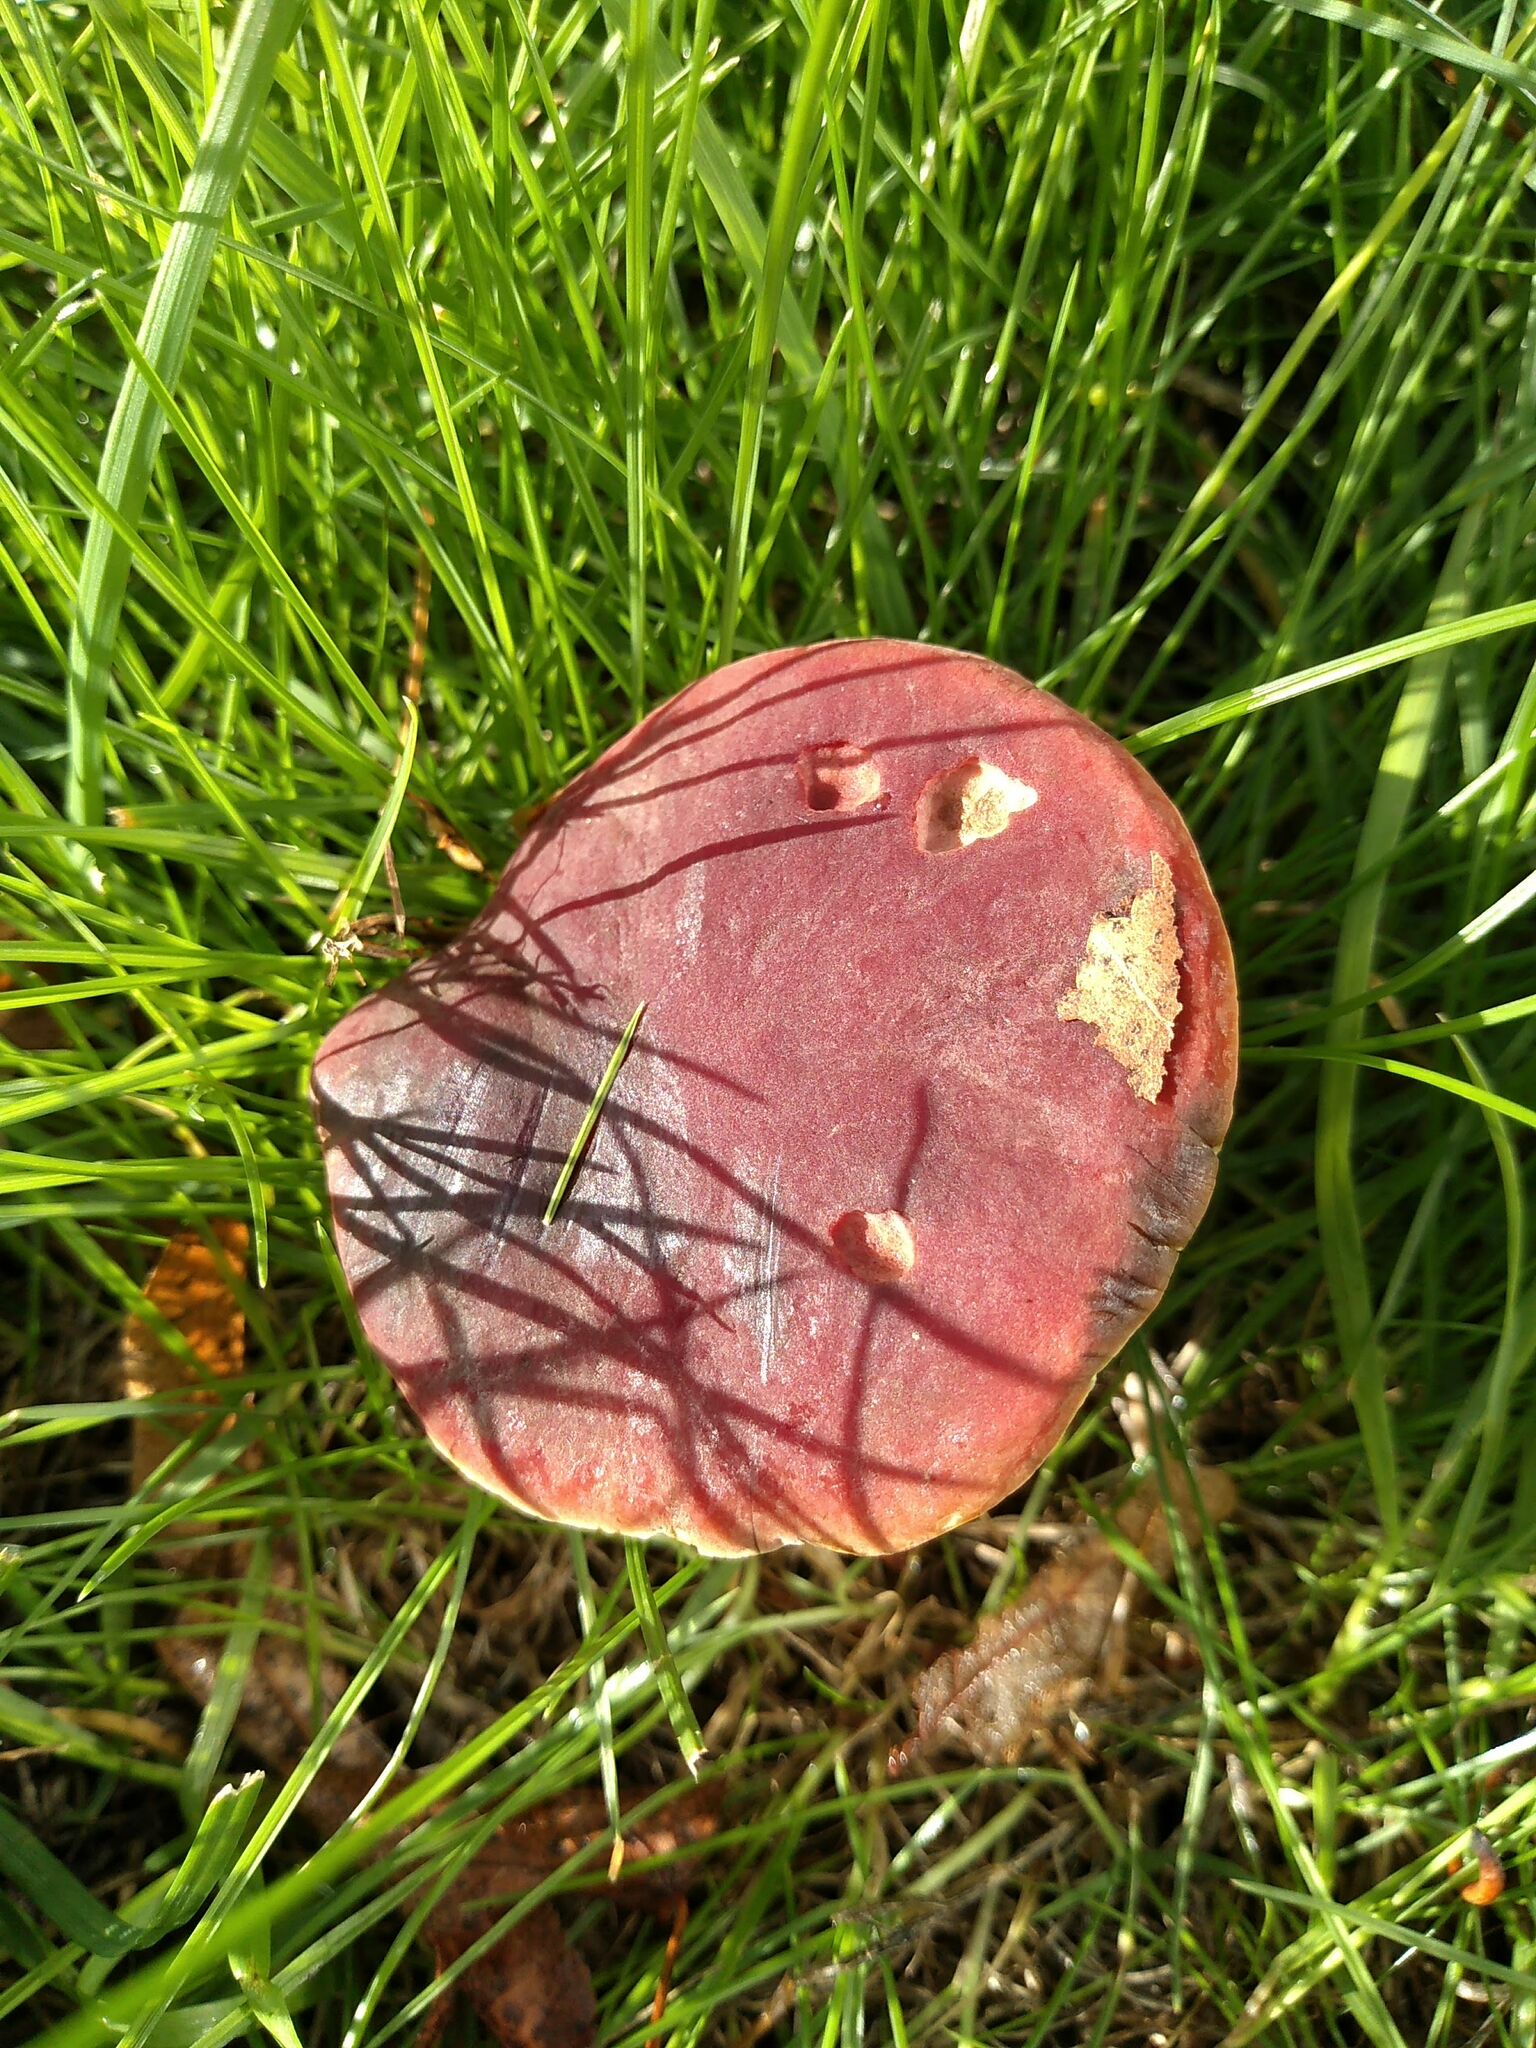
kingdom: Fungi
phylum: Basidiomycota
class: Agaricomycetes
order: Boletales
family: Boletaceae
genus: Hortiboletus
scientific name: Hortiboletus rubellus
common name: Ruby bolete
